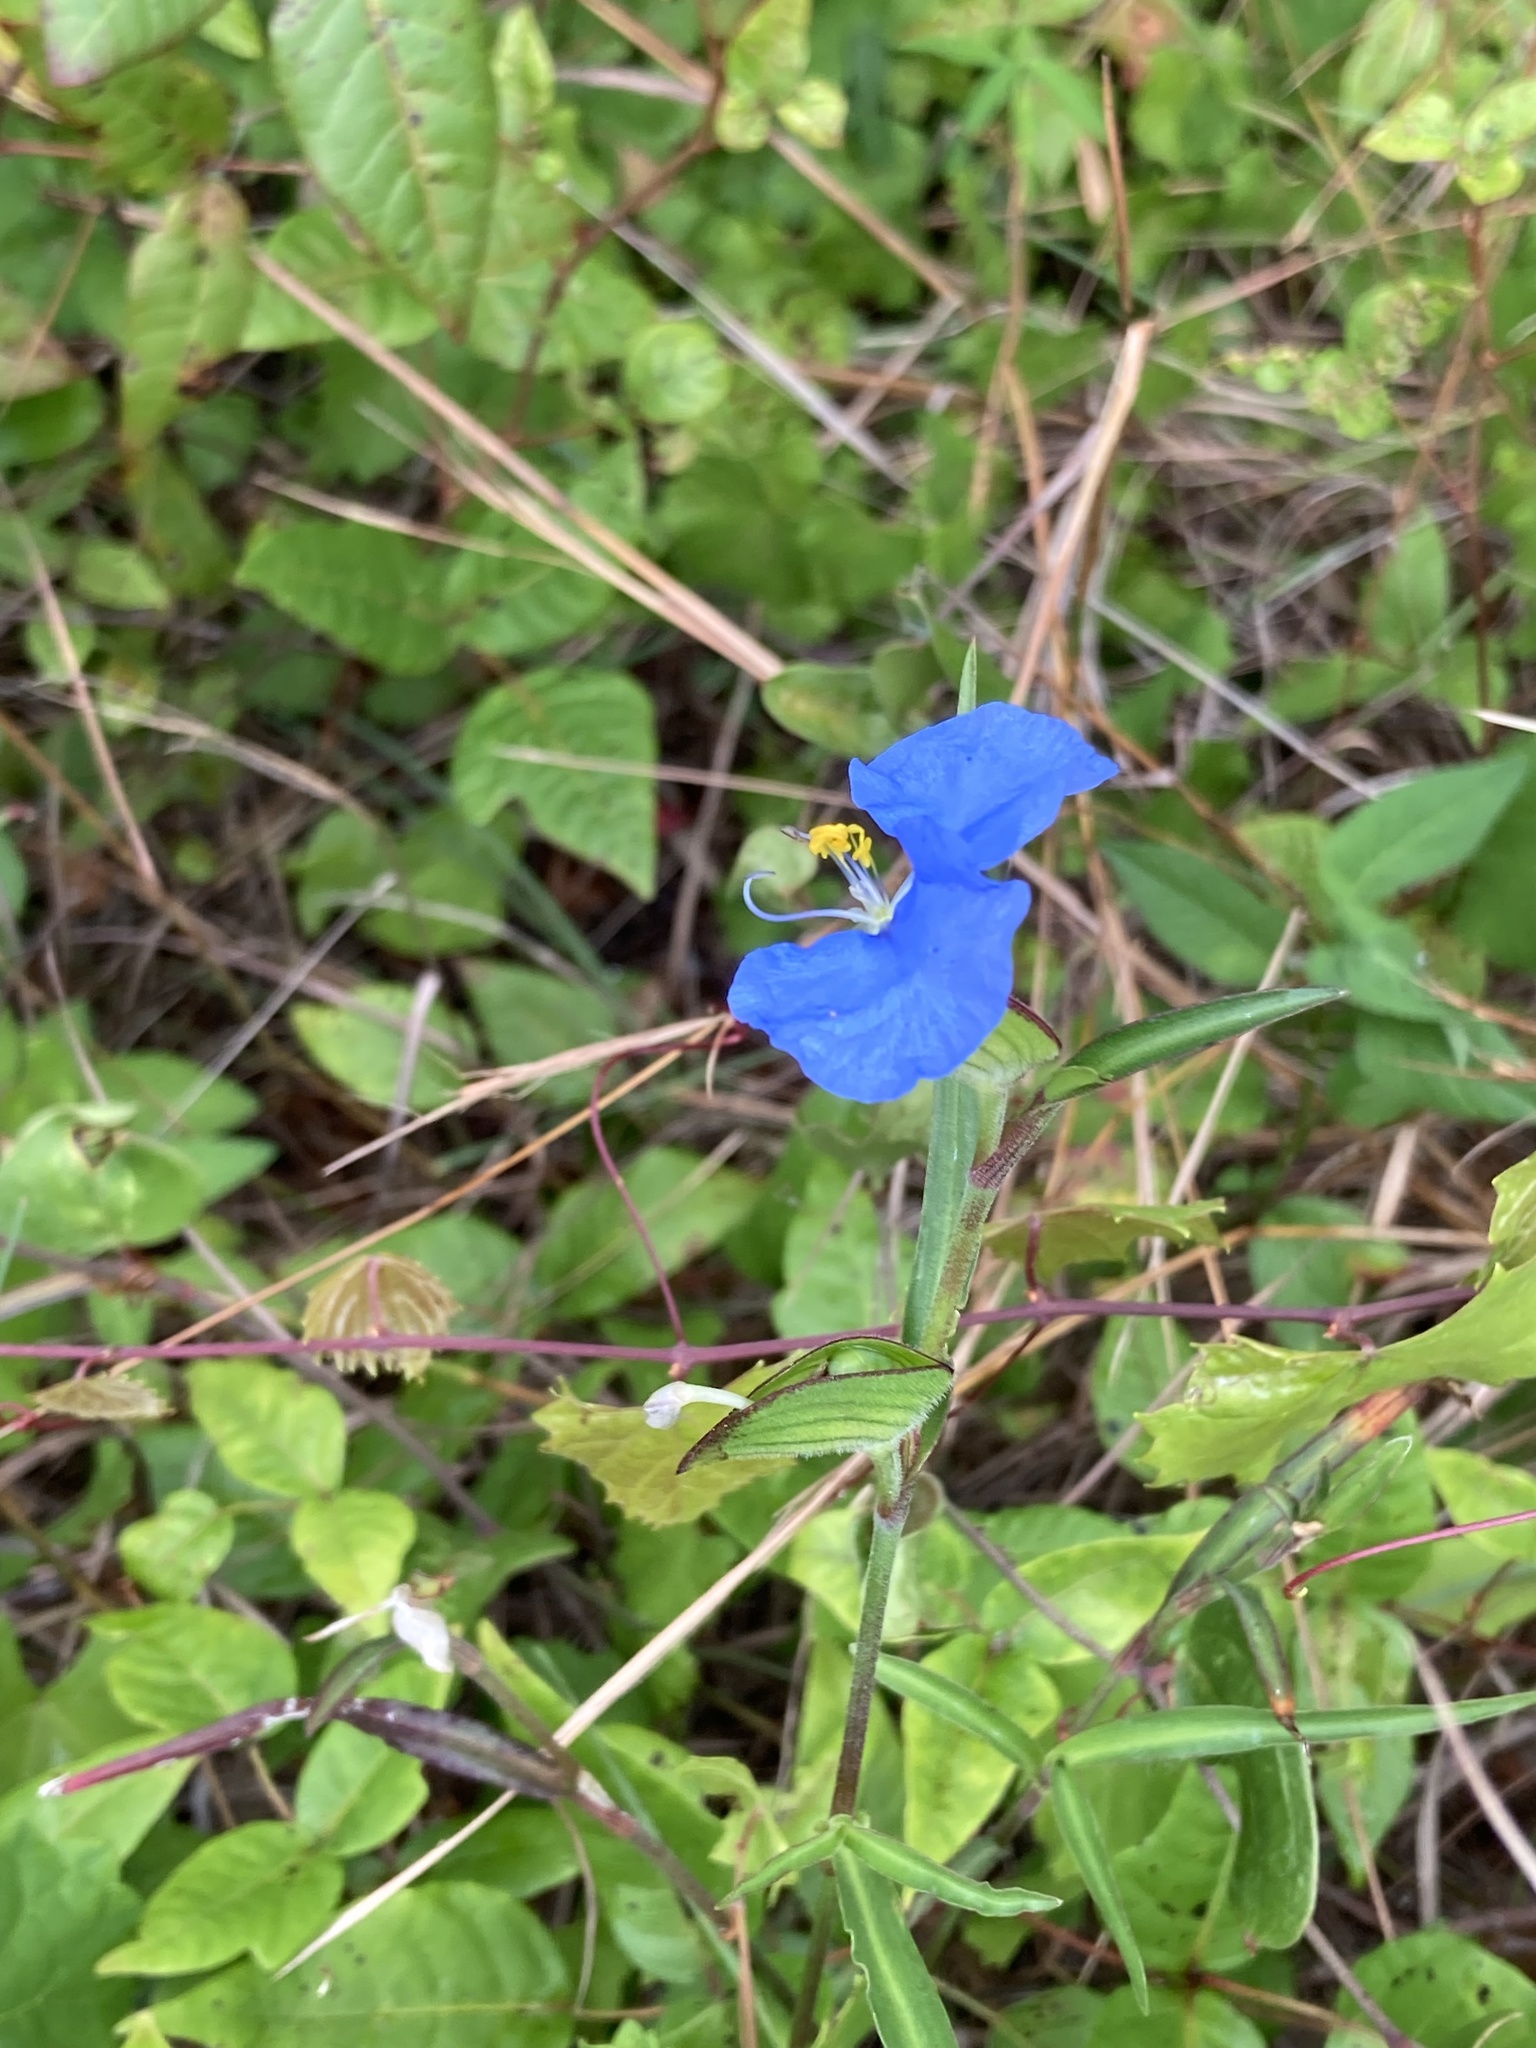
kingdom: Plantae
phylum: Tracheophyta
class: Liliopsida
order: Commelinales
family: Commelinaceae
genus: Commelina
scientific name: Commelina erecta
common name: Blousel blommetjie
